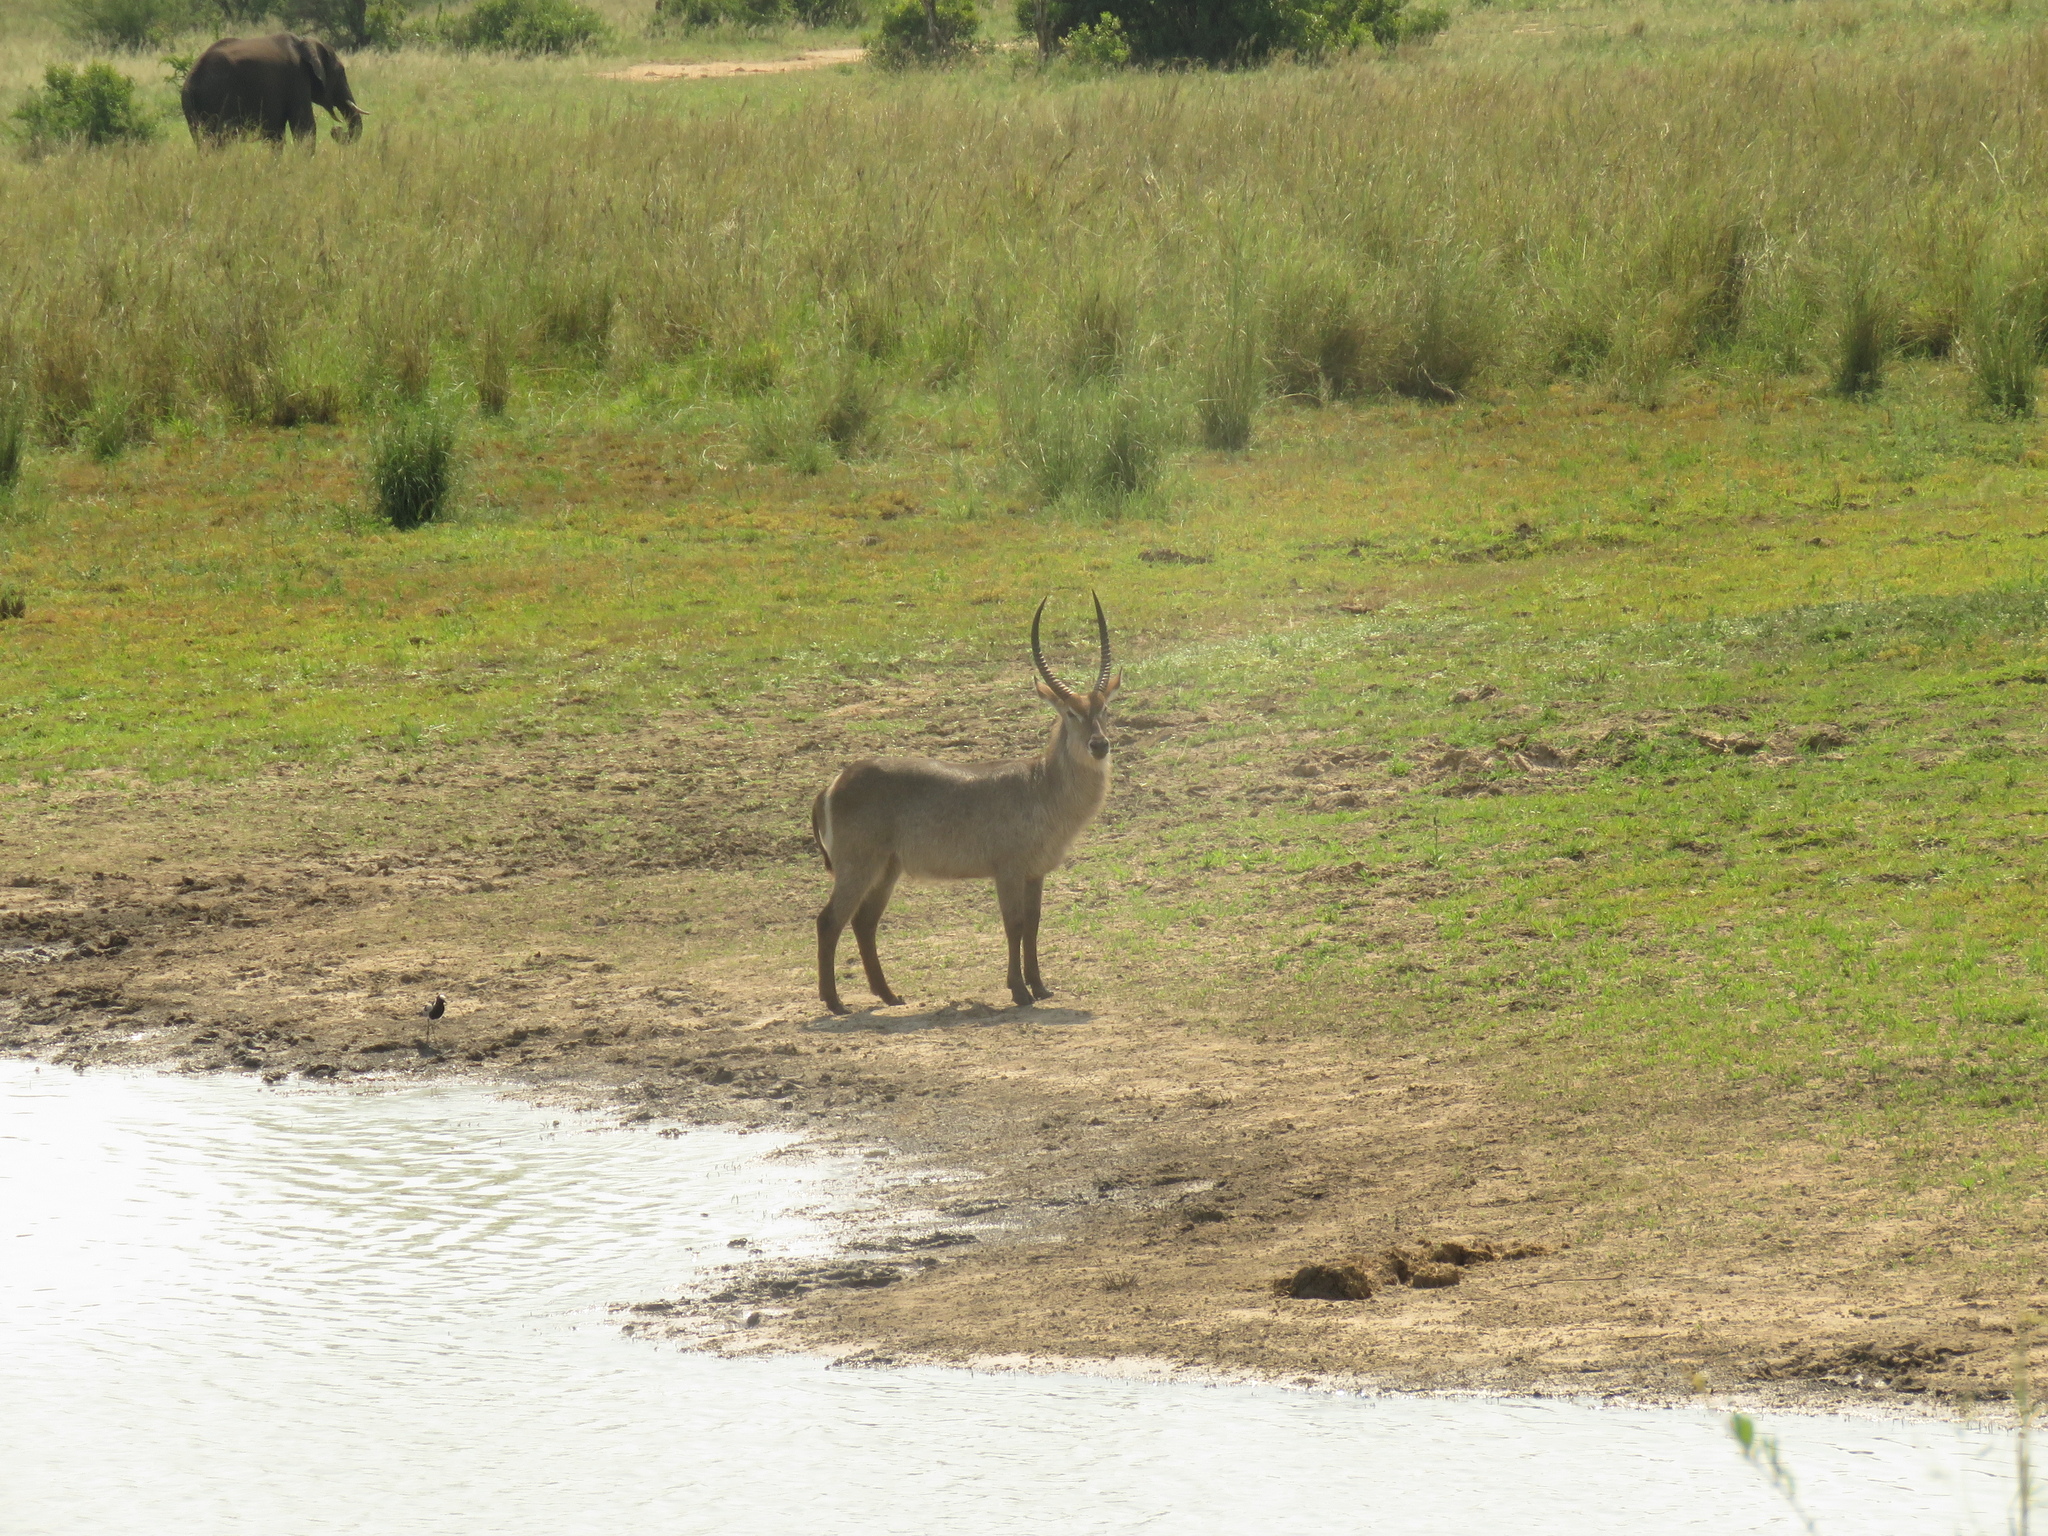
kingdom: Animalia
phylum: Chordata
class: Mammalia
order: Artiodactyla
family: Bovidae
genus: Kobus
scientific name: Kobus ellipsiprymnus
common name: Waterbuck
